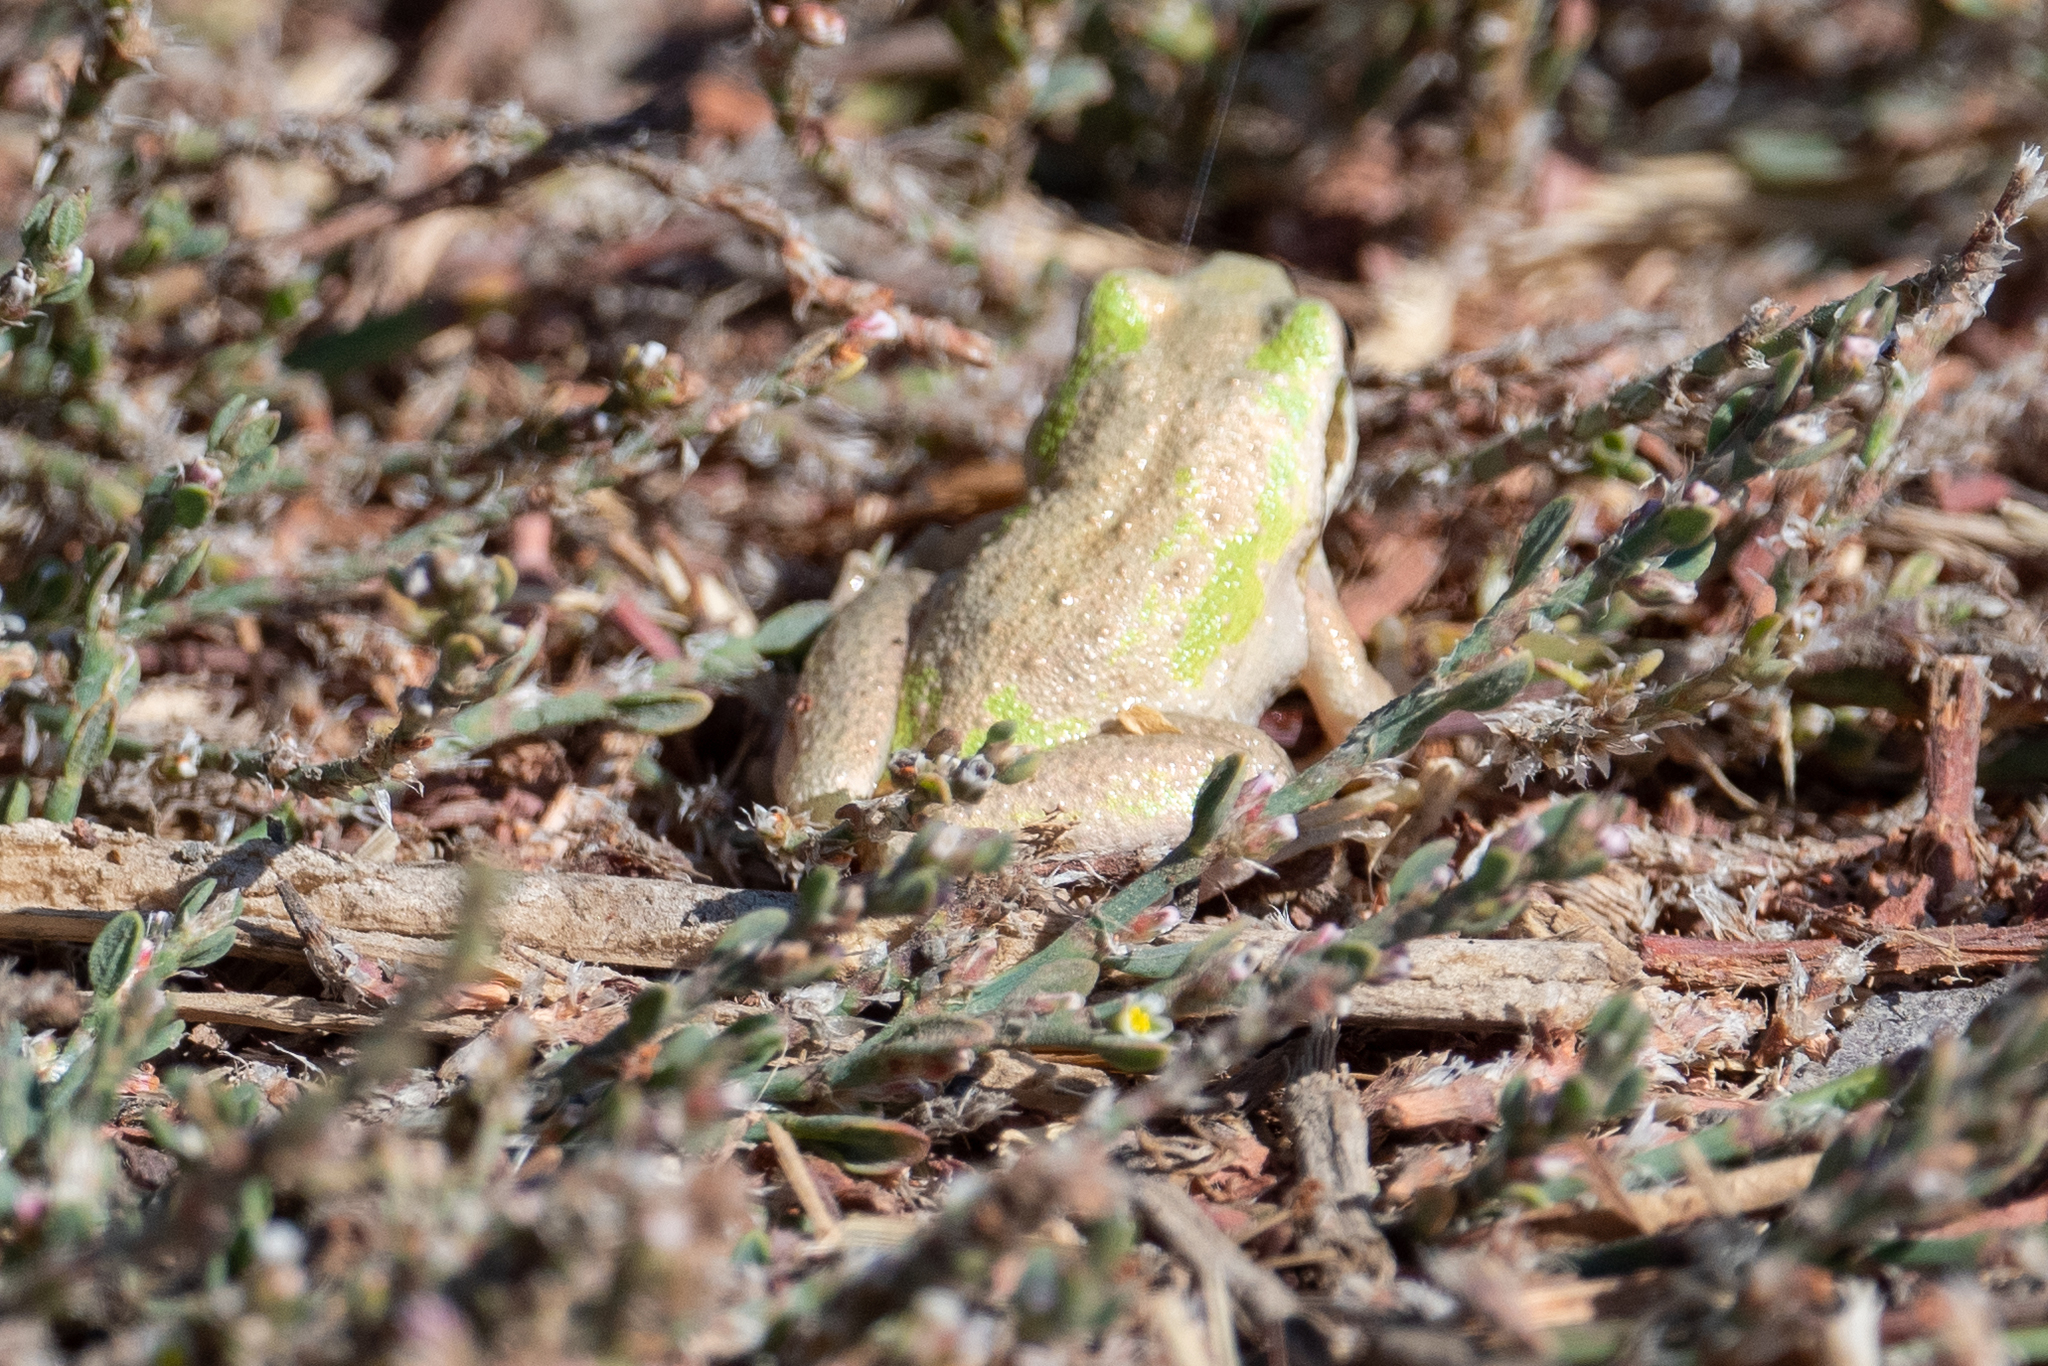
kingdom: Animalia
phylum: Chordata
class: Amphibia
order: Anura
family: Hylidae
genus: Pseudacris
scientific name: Pseudacris regilla
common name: Pacific chorus frog
